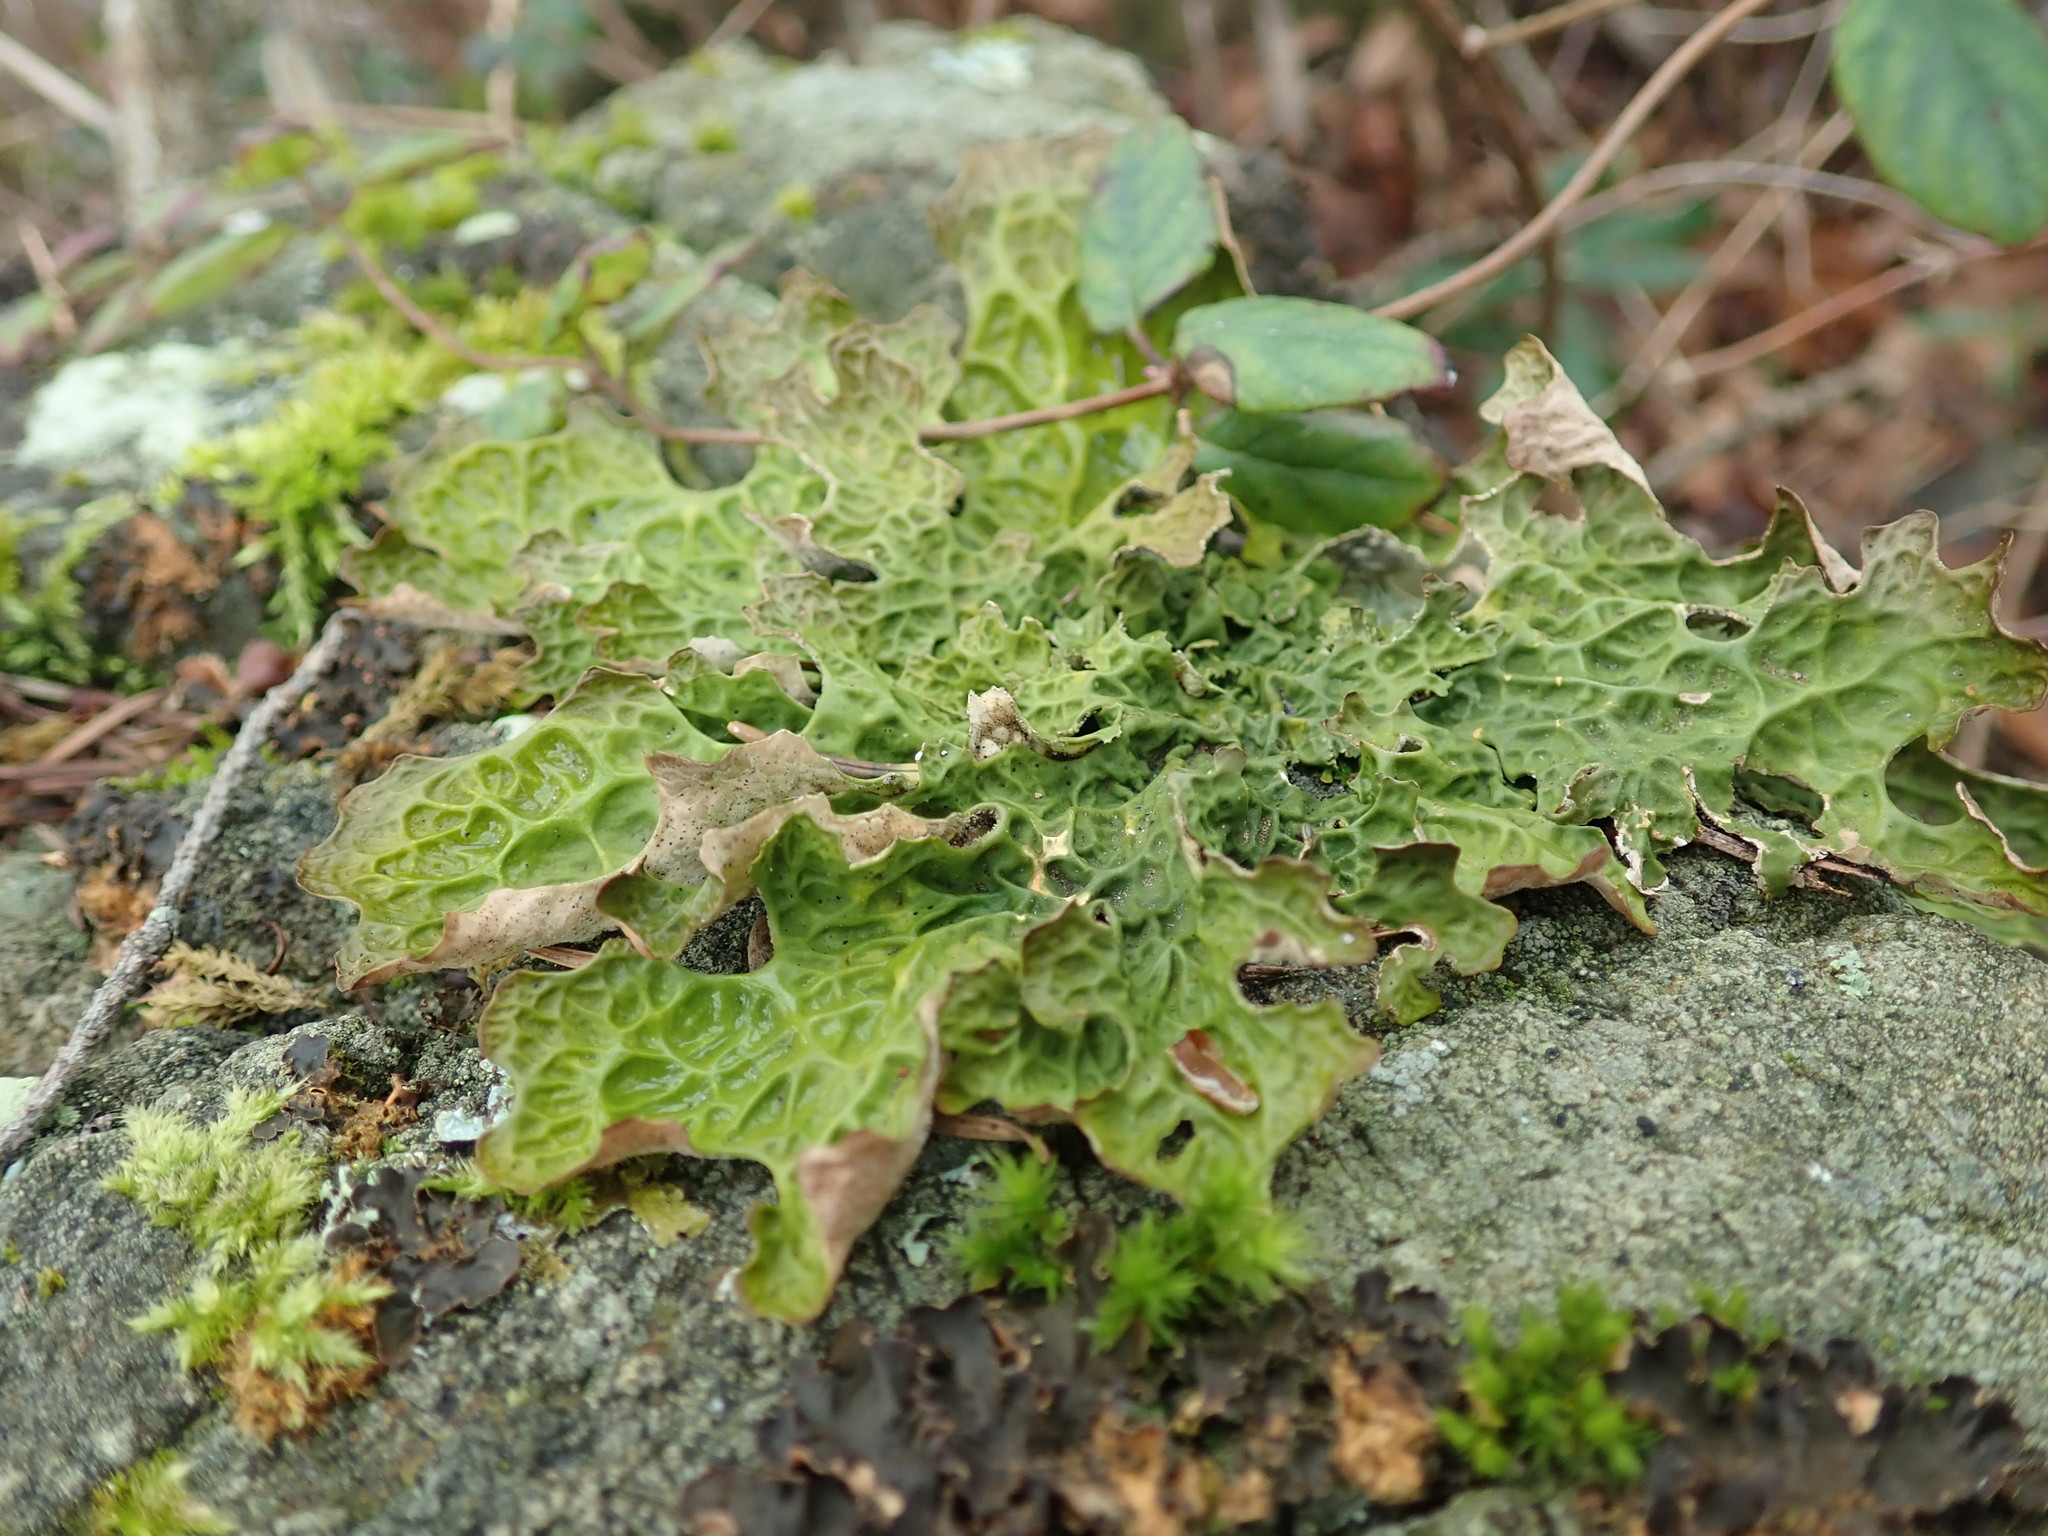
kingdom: Fungi
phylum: Ascomycota
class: Lecanoromycetes
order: Peltigerales
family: Lobariaceae
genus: Lobaria
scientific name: Lobaria pulmonaria
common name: Lungwort
